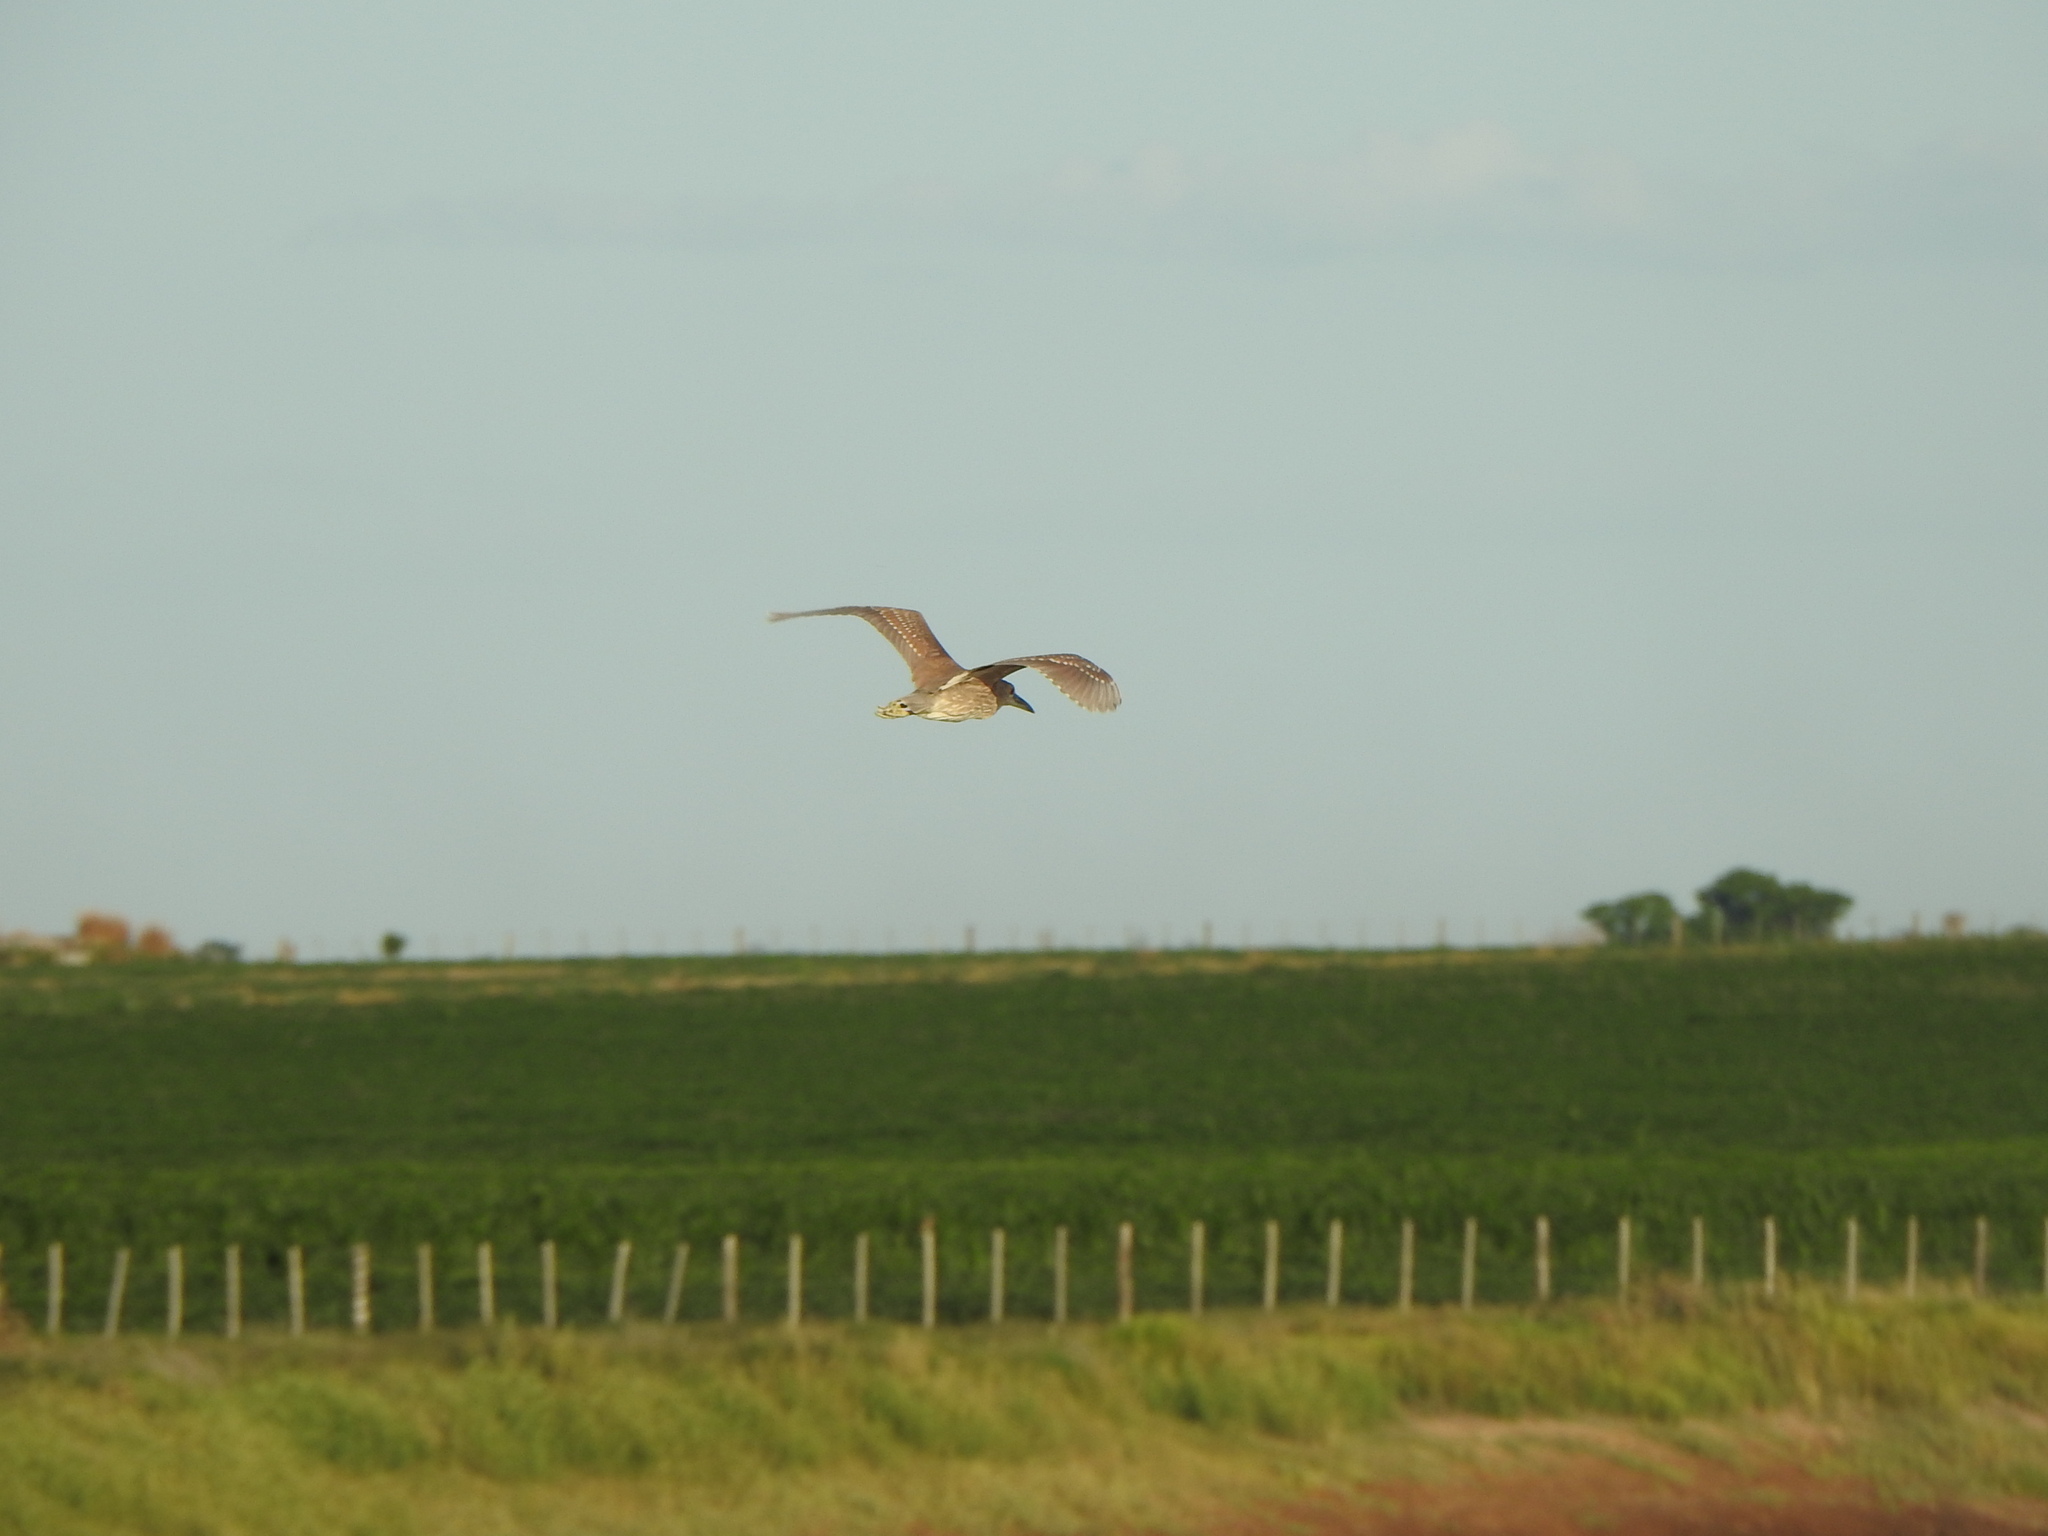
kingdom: Animalia
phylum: Chordata
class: Aves
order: Pelecaniformes
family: Ardeidae
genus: Nycticorax
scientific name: Nycticorax nycticorax
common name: Black-crowned night heron
